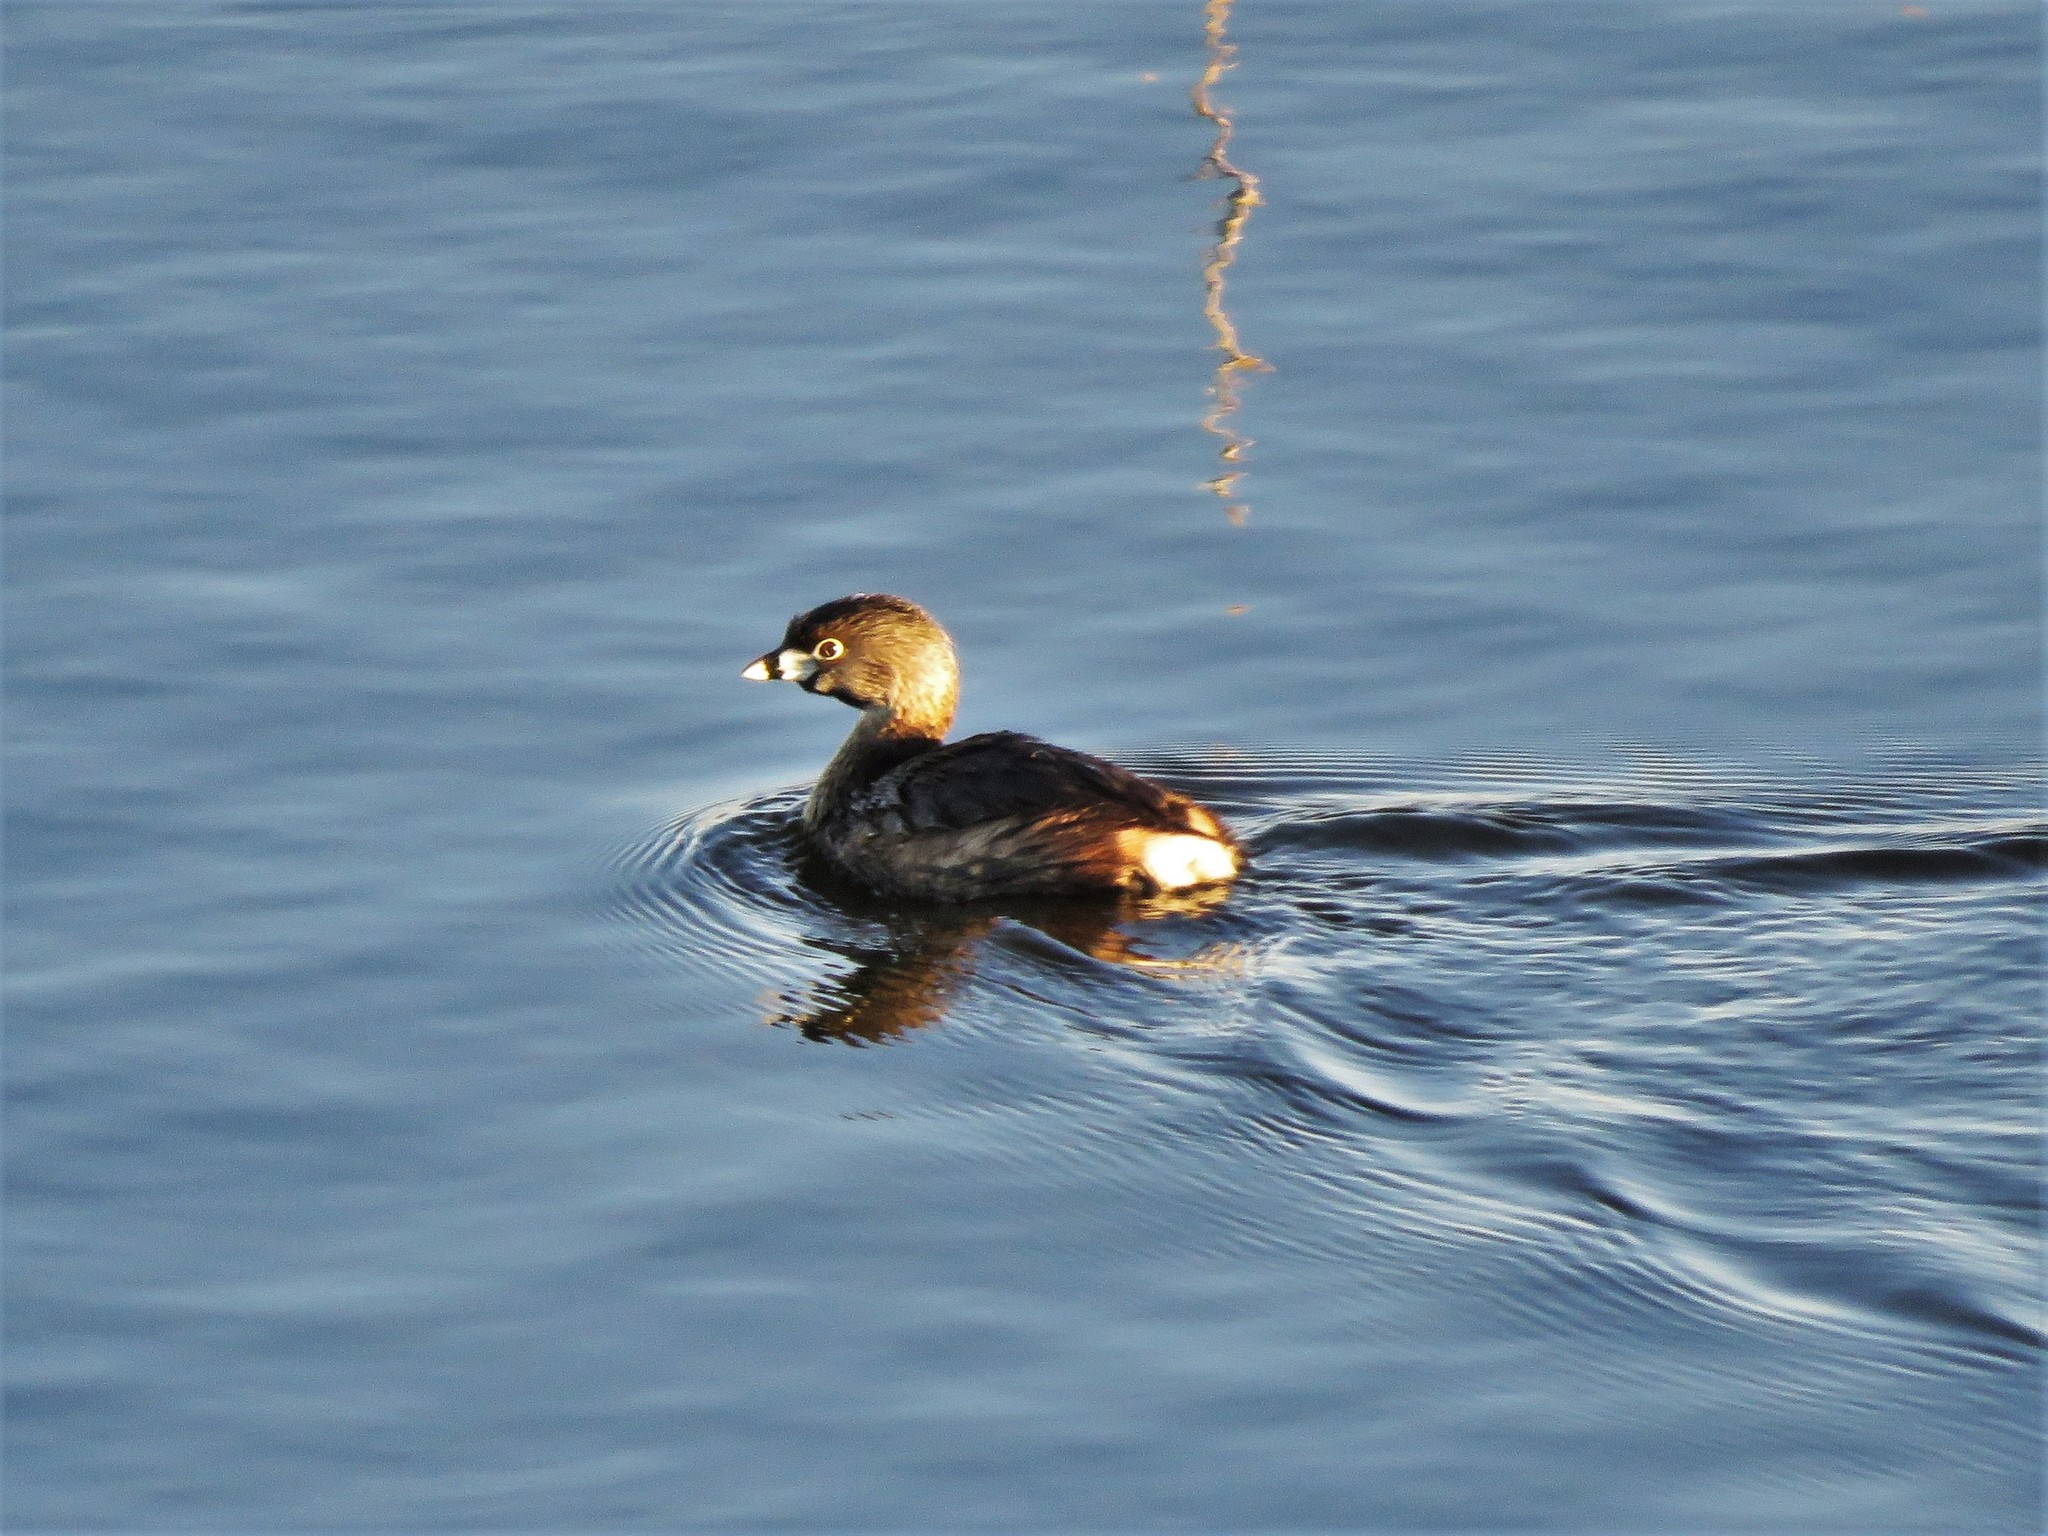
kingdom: Animalia
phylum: Chordata
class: Aves
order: Podicipediformes
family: Podicipedidae
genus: Podilymbus
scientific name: Podilymbus podiceps
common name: Pied-billed grebe
